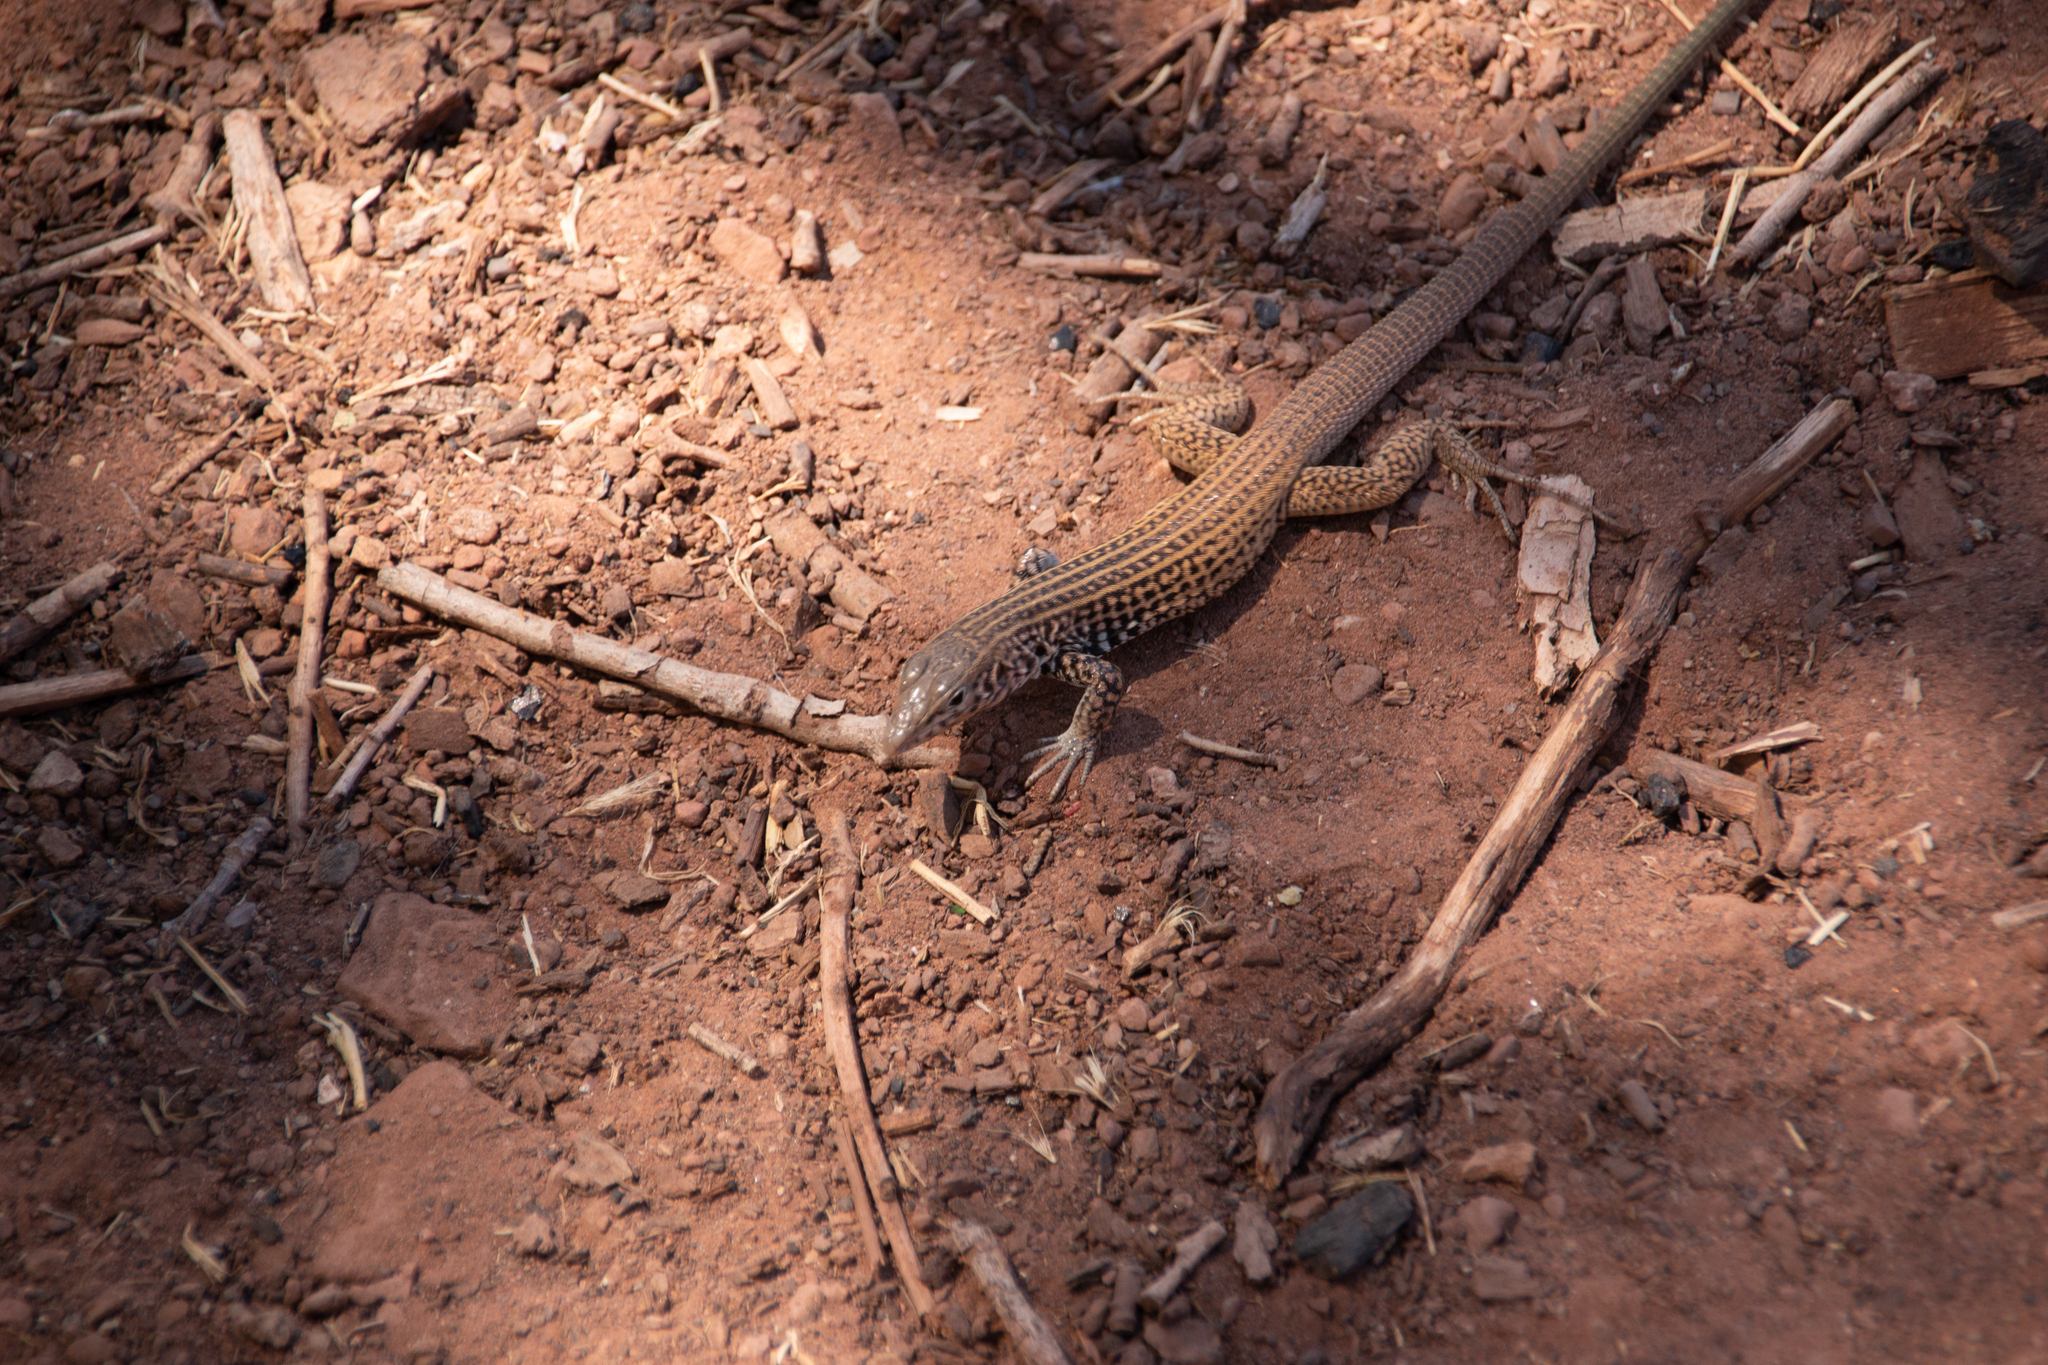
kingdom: Animalia
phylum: Chordata
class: Squamata
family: Teiidae
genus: Aspidoscelis
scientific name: Aspidoscelis tigris
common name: Tiger whiptail
